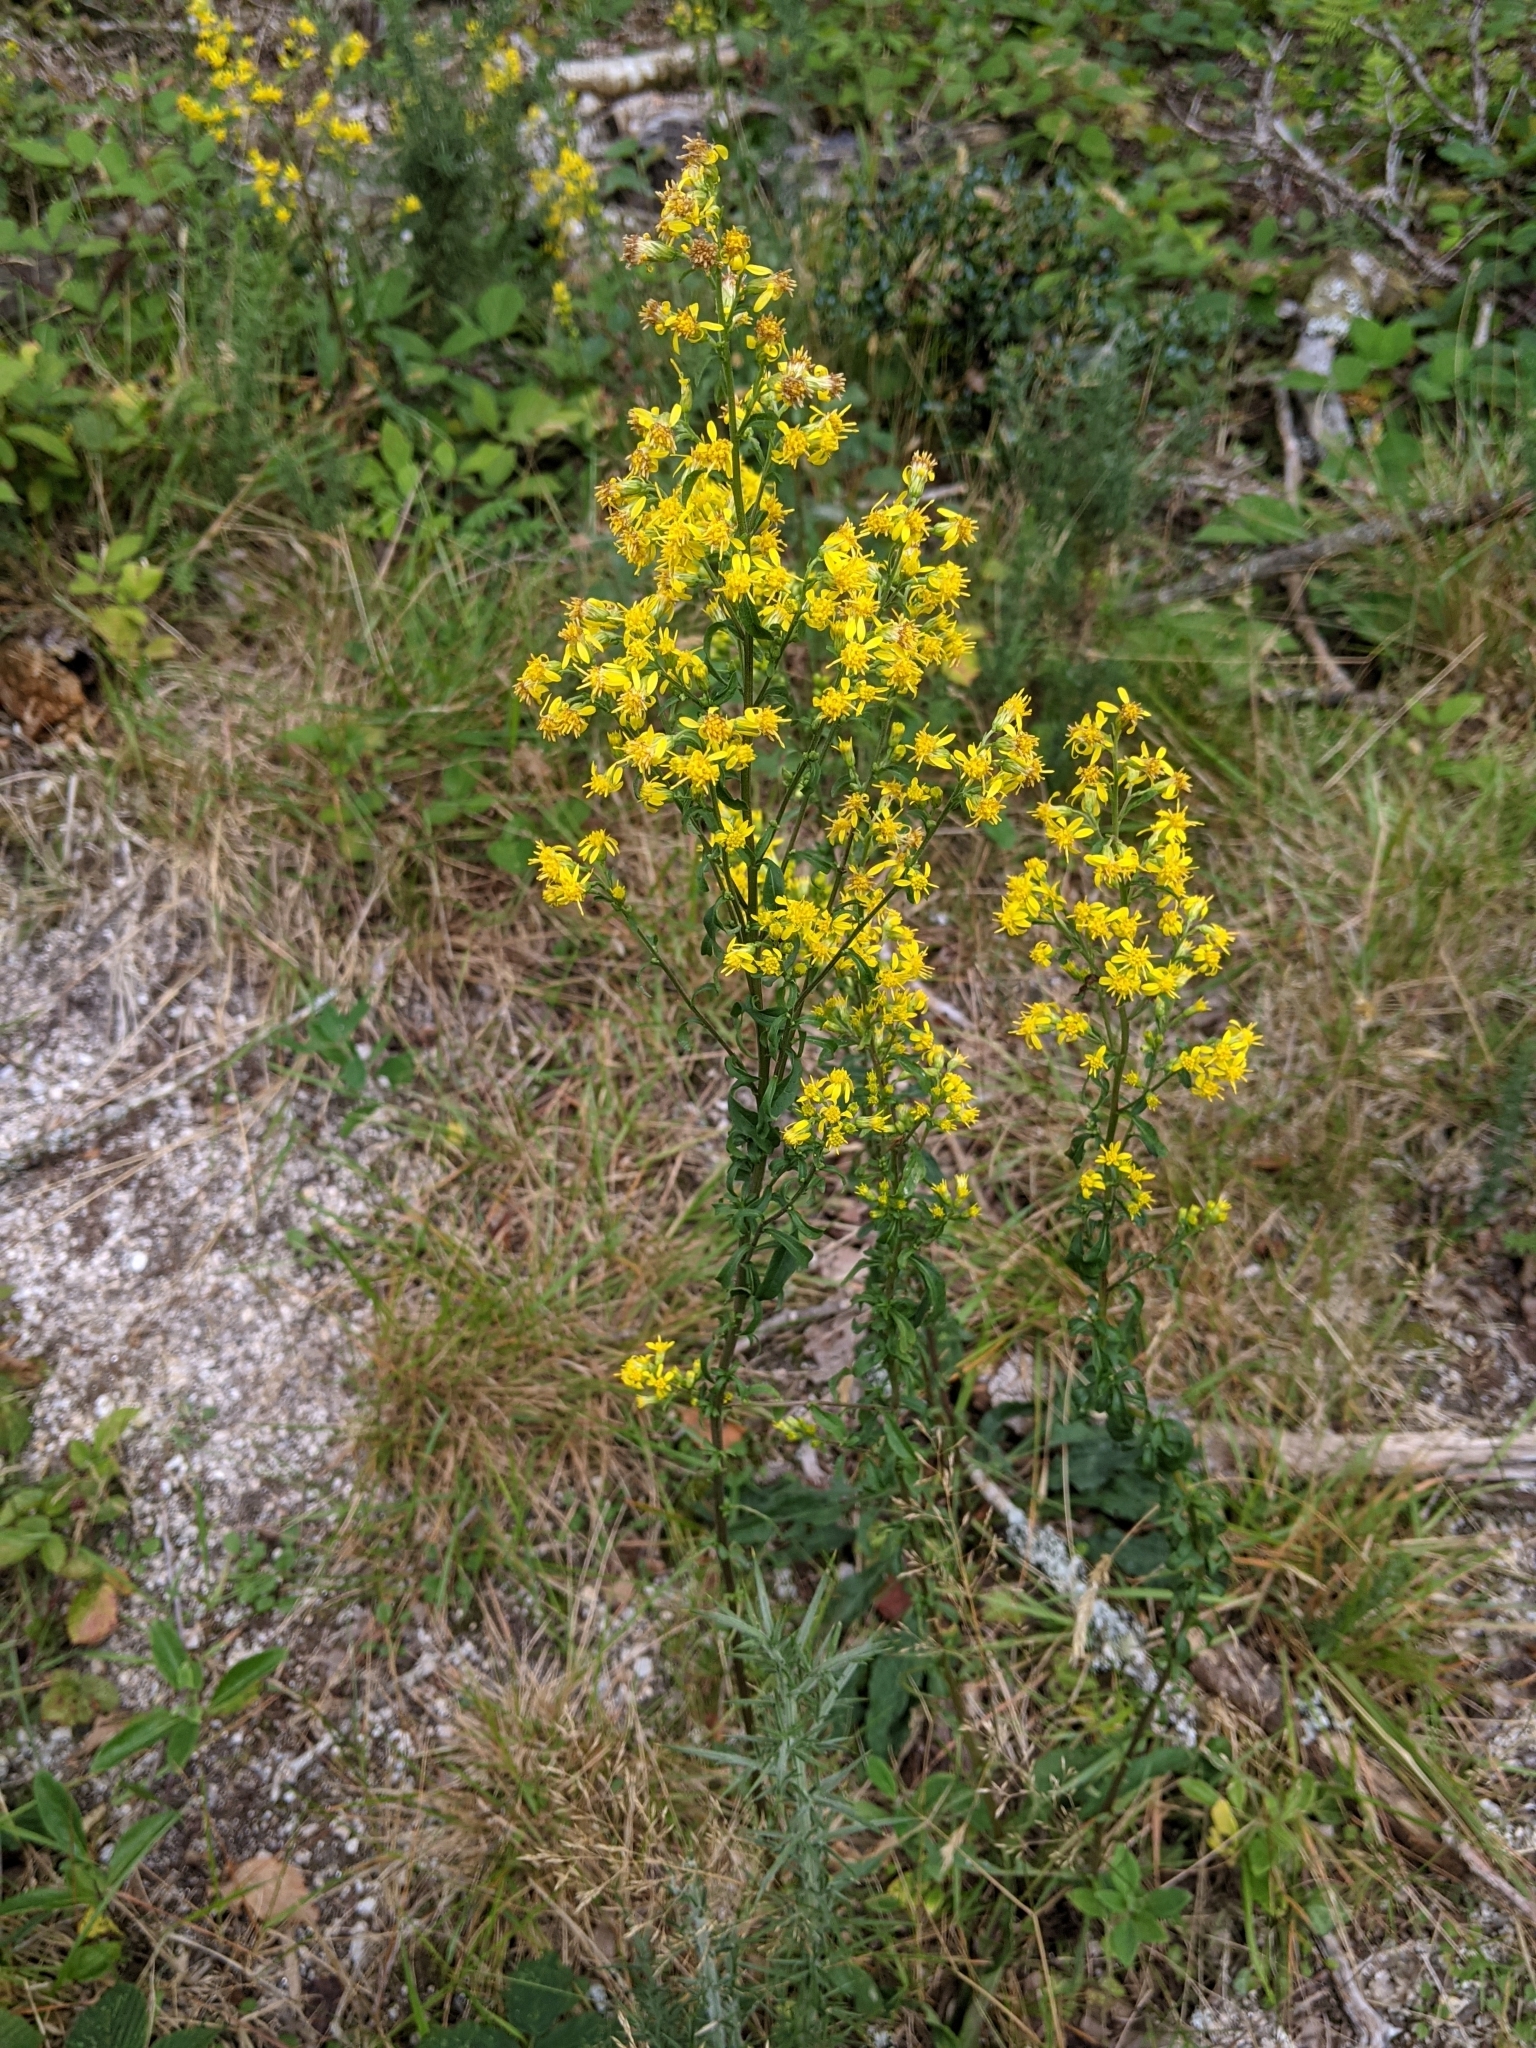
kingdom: Plantae
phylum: Tracheophyta
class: Magnoliopsida
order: Asterales
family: Asteraceae
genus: Solidago
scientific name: Solidago virgaurea
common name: Goldenrod
